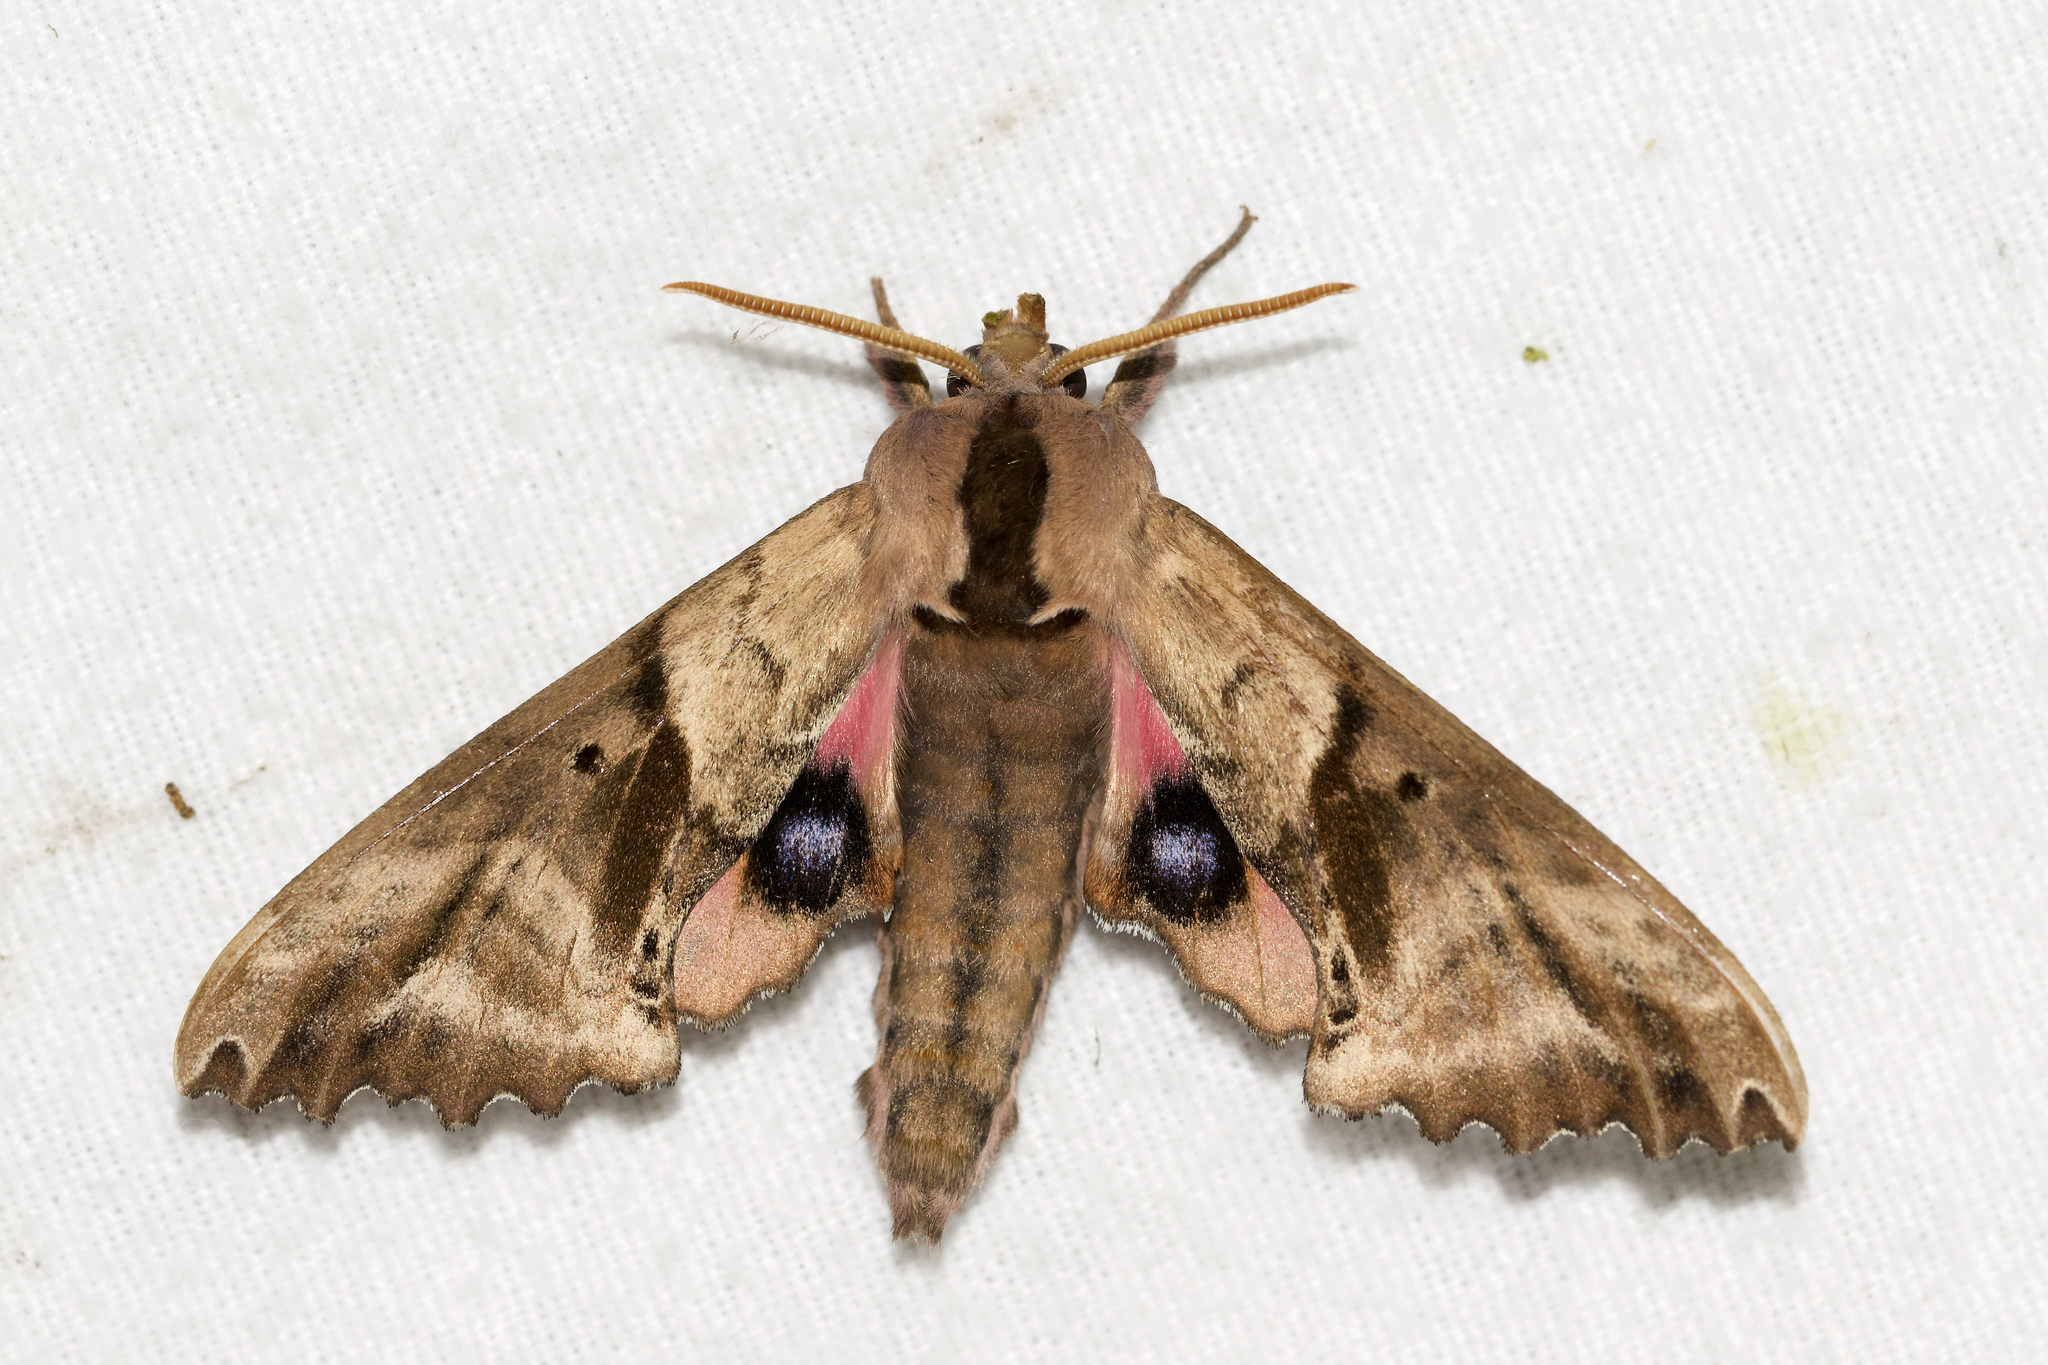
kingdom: Animalia
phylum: Arthropoda
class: Insecta
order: Lepidoptera
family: Sphingidae
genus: Paonias
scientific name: Paonias excaecata
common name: Blind-eyed sphinx
